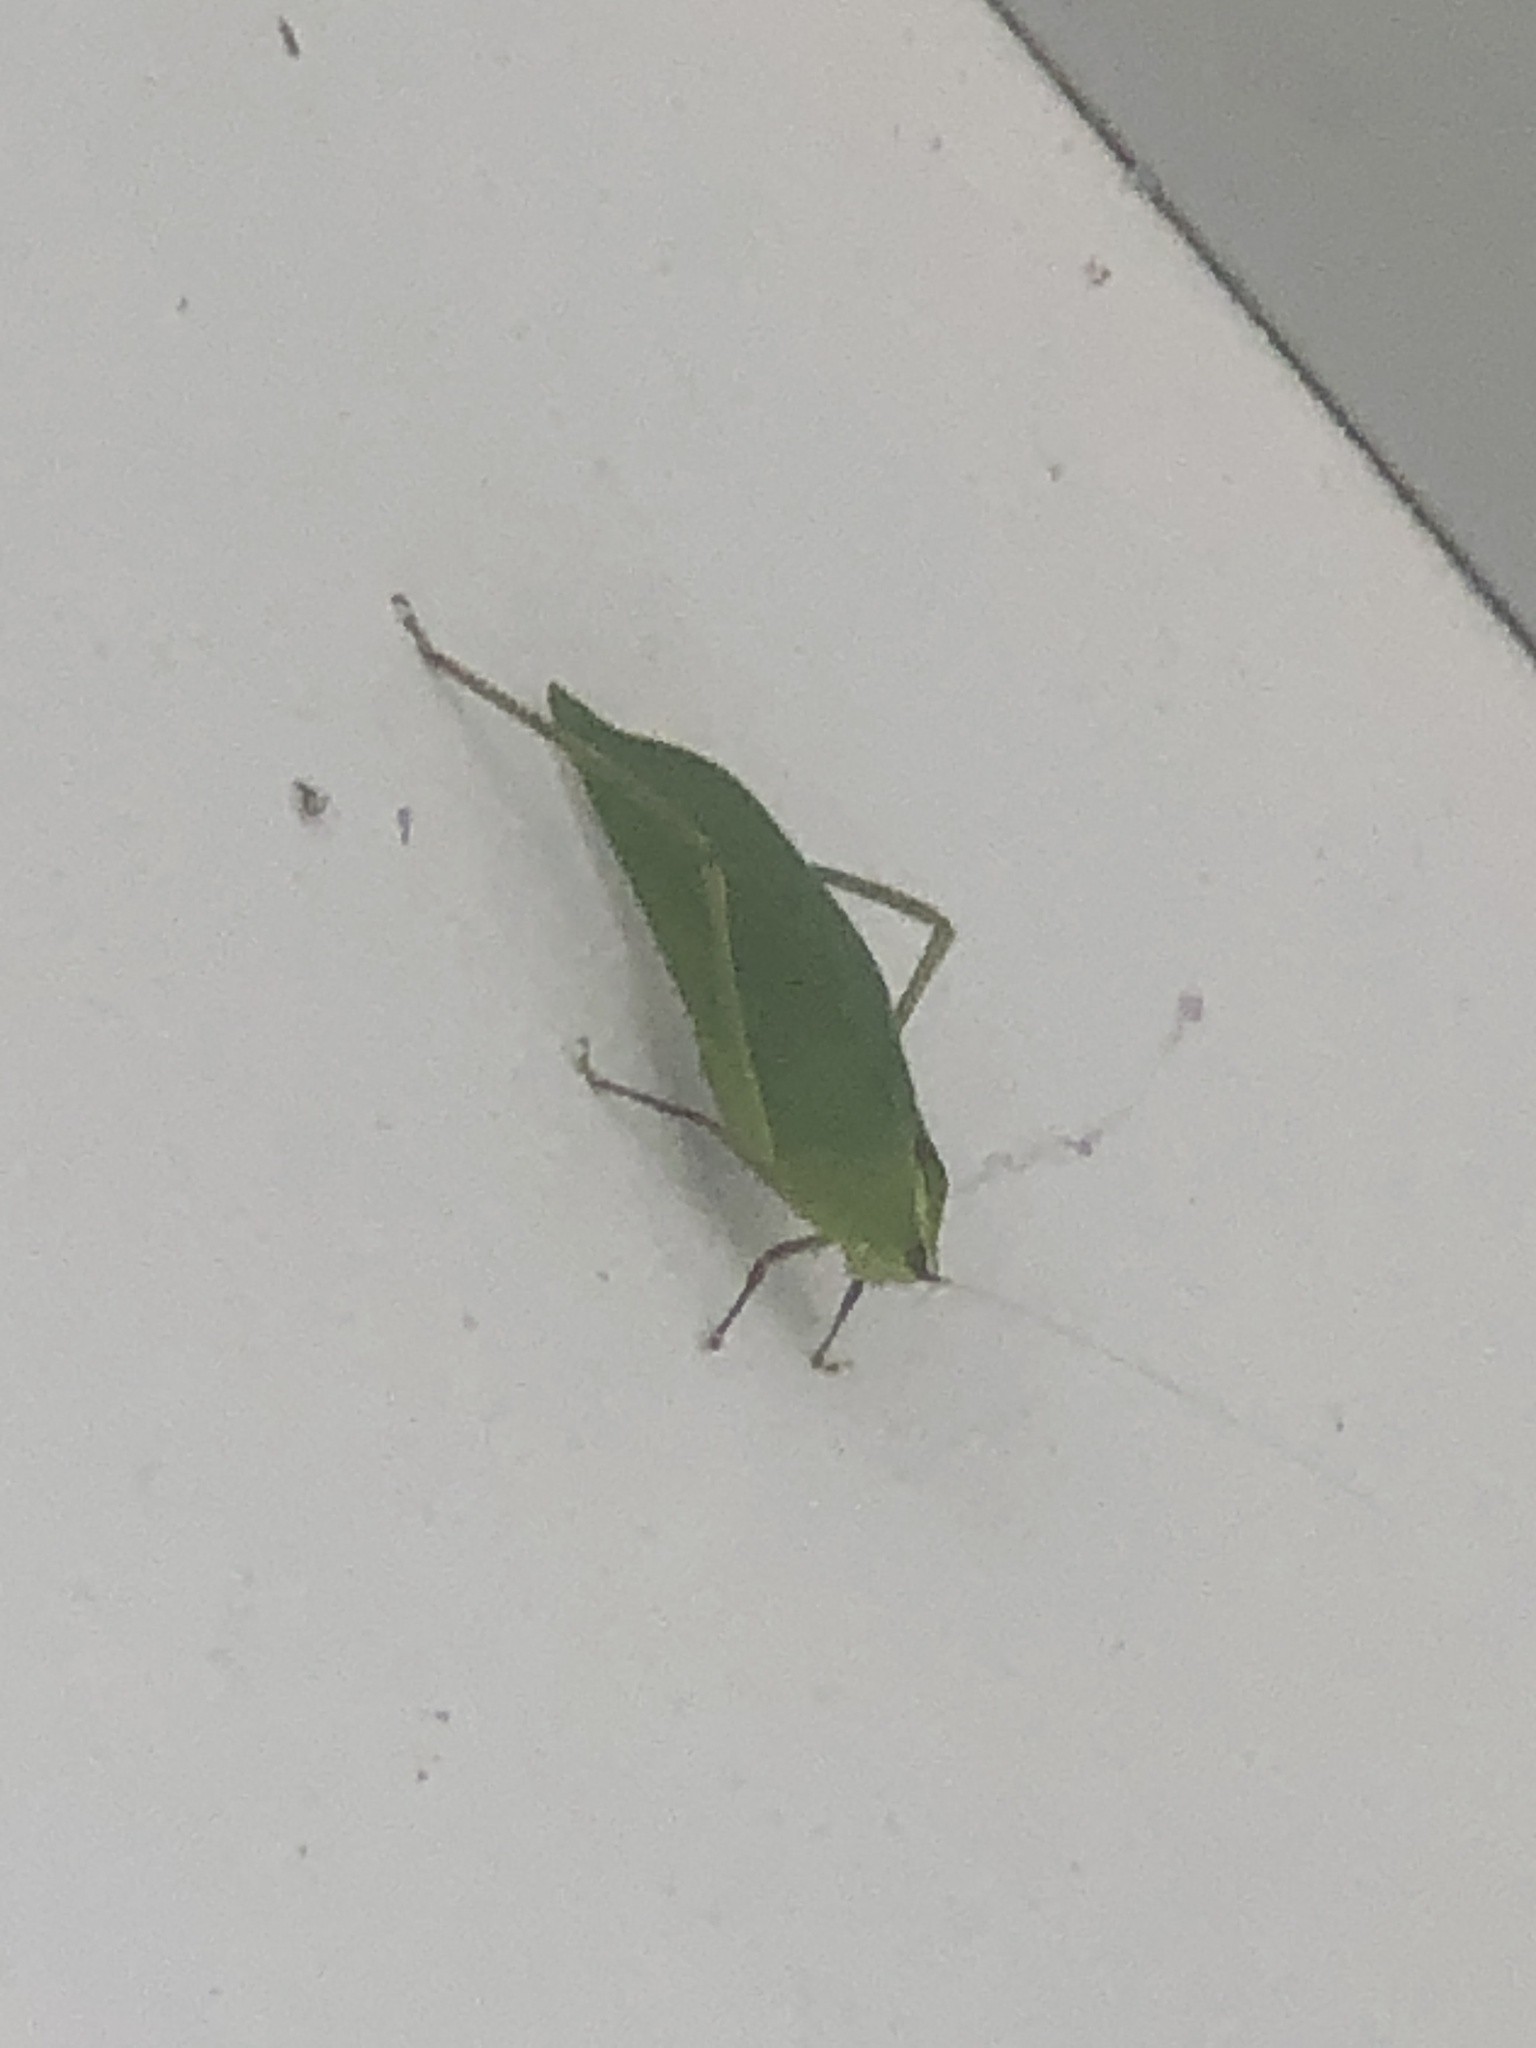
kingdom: Animalia
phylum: Arthropoda
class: Insecta
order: Orthoptera
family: Tettigoniidae
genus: Stilpnochlora
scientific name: Stilpnochlora couloniana
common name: Giant katydid
